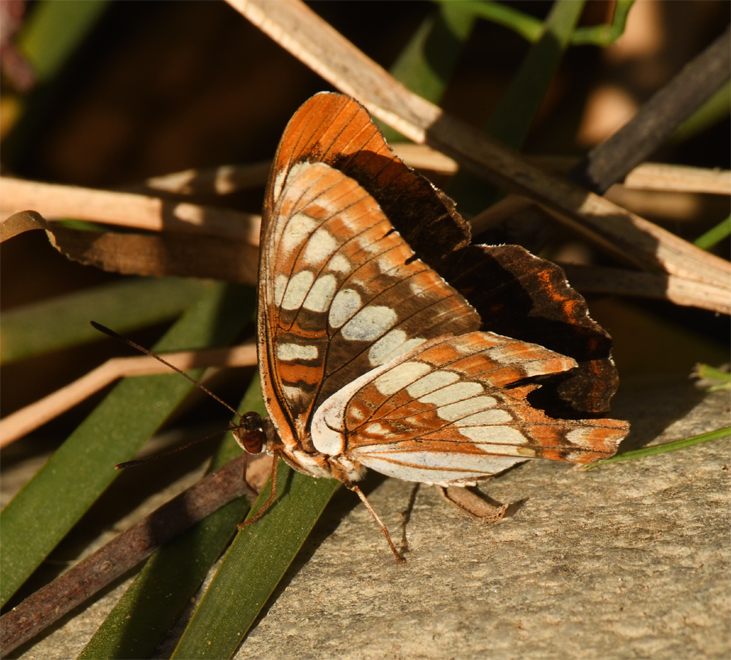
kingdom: Animalia
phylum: Arthropoda
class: Insecta
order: Lepidoptera
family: Nymphalidae
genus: Limenitis
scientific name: Limenitis lorquini
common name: Lorquin's admiral
